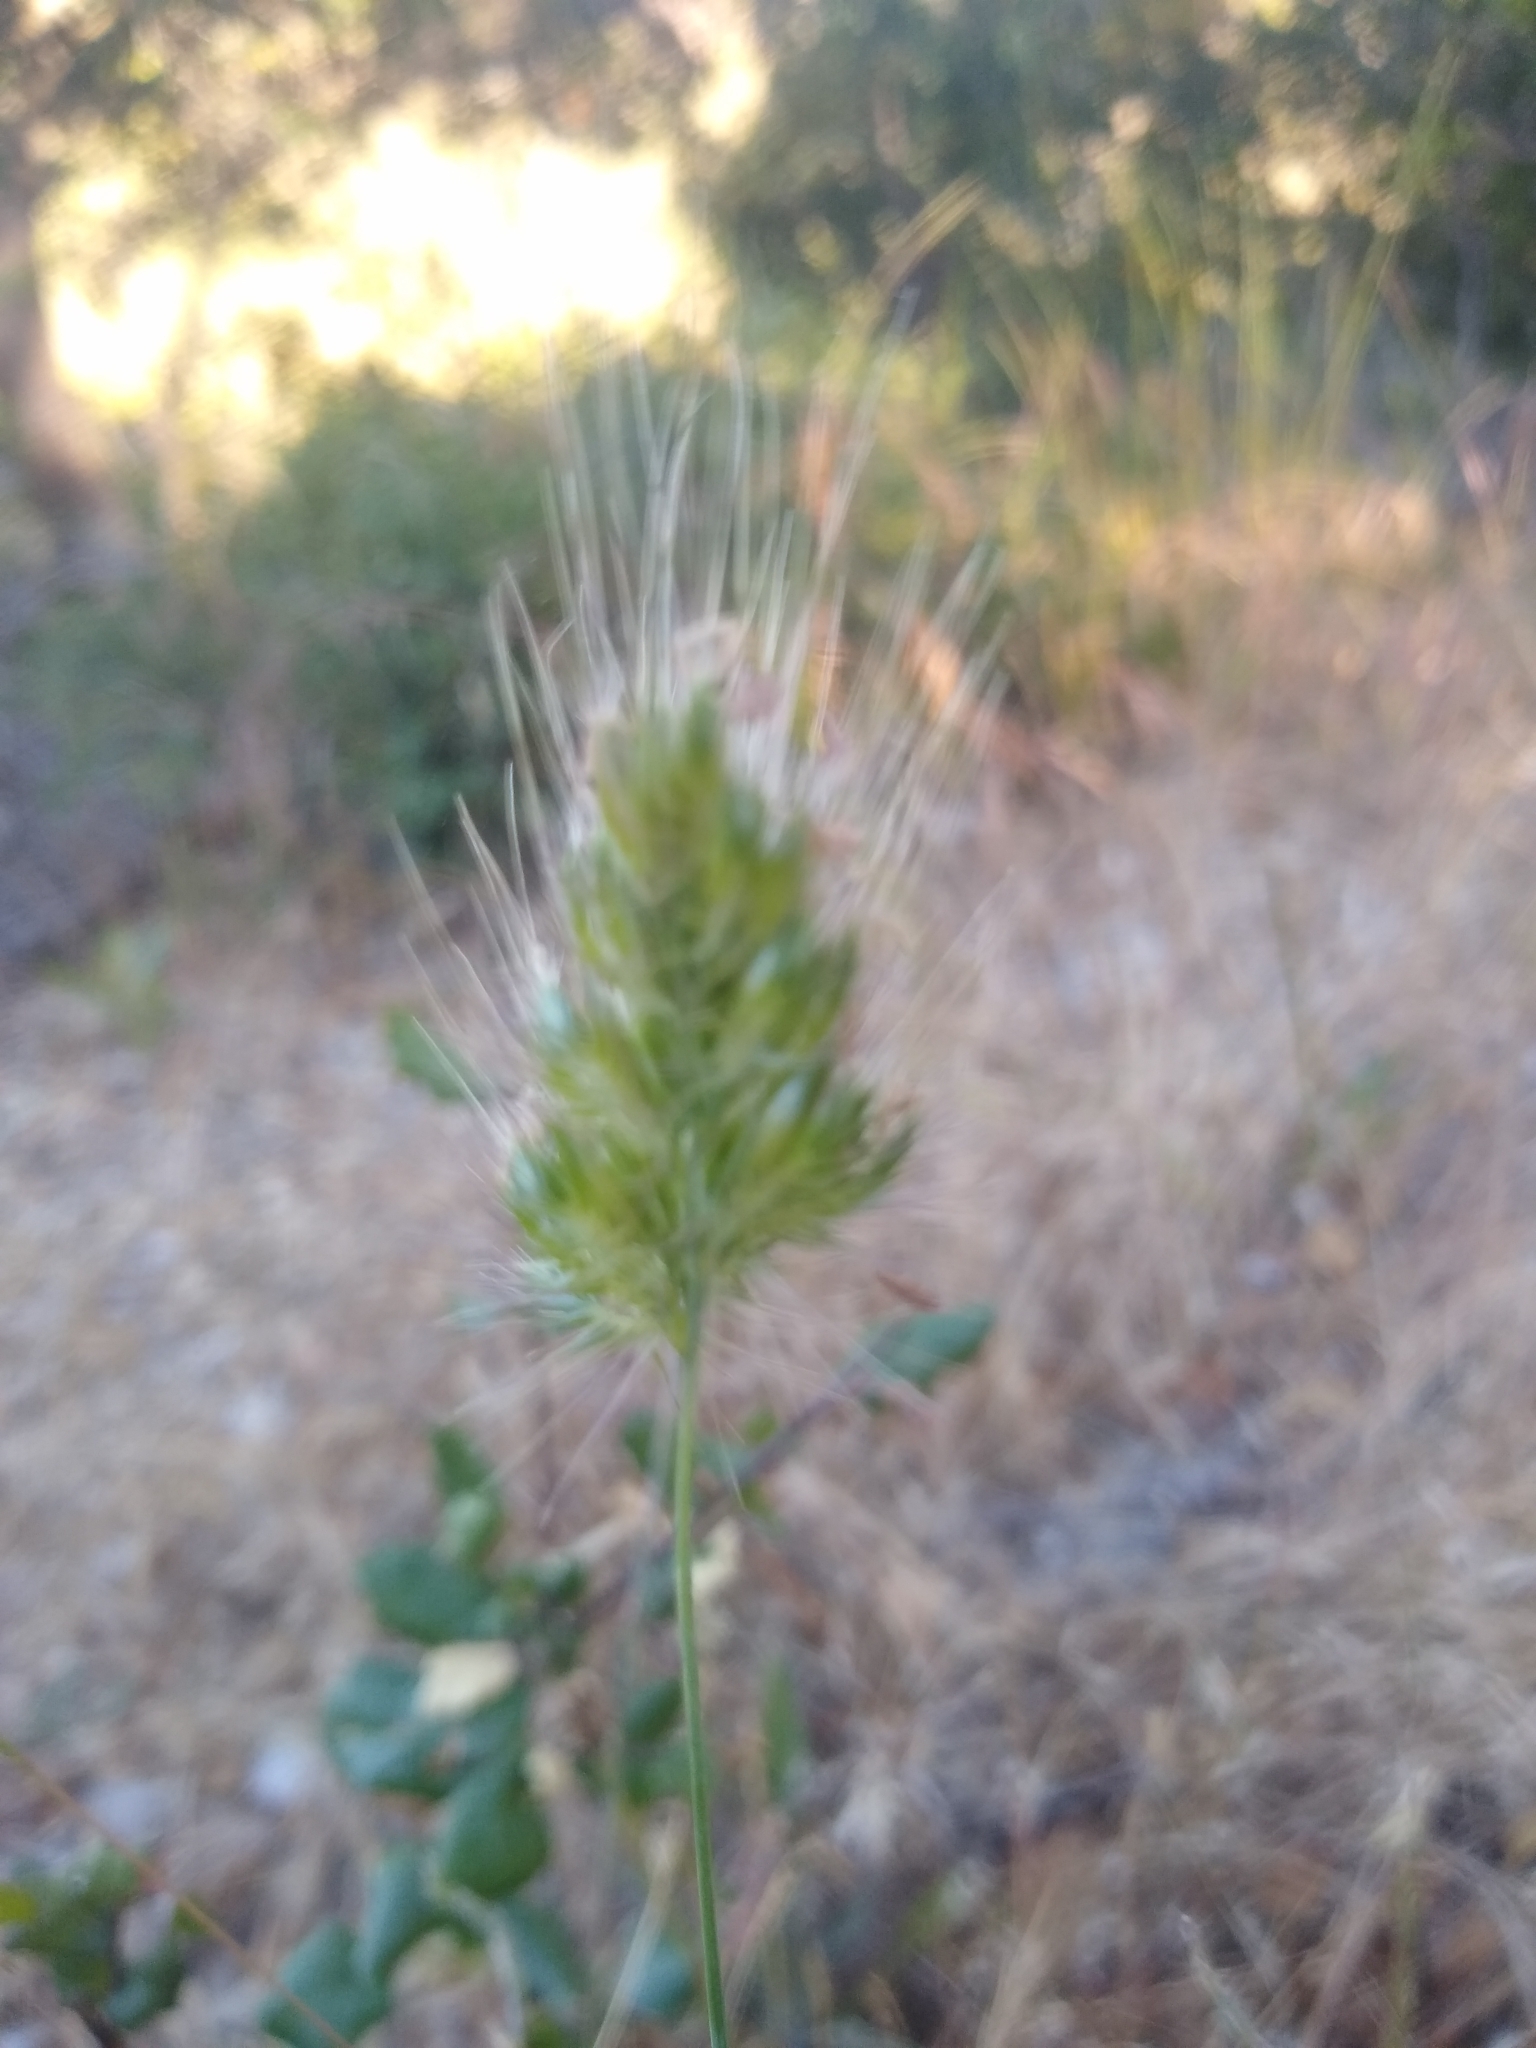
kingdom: Plantae
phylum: Tracheophyta
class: Liliopsida
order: Poales
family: Poaceae
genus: Cynosurus
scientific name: Cynosurus echinatus
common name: Rough dog's-tail
